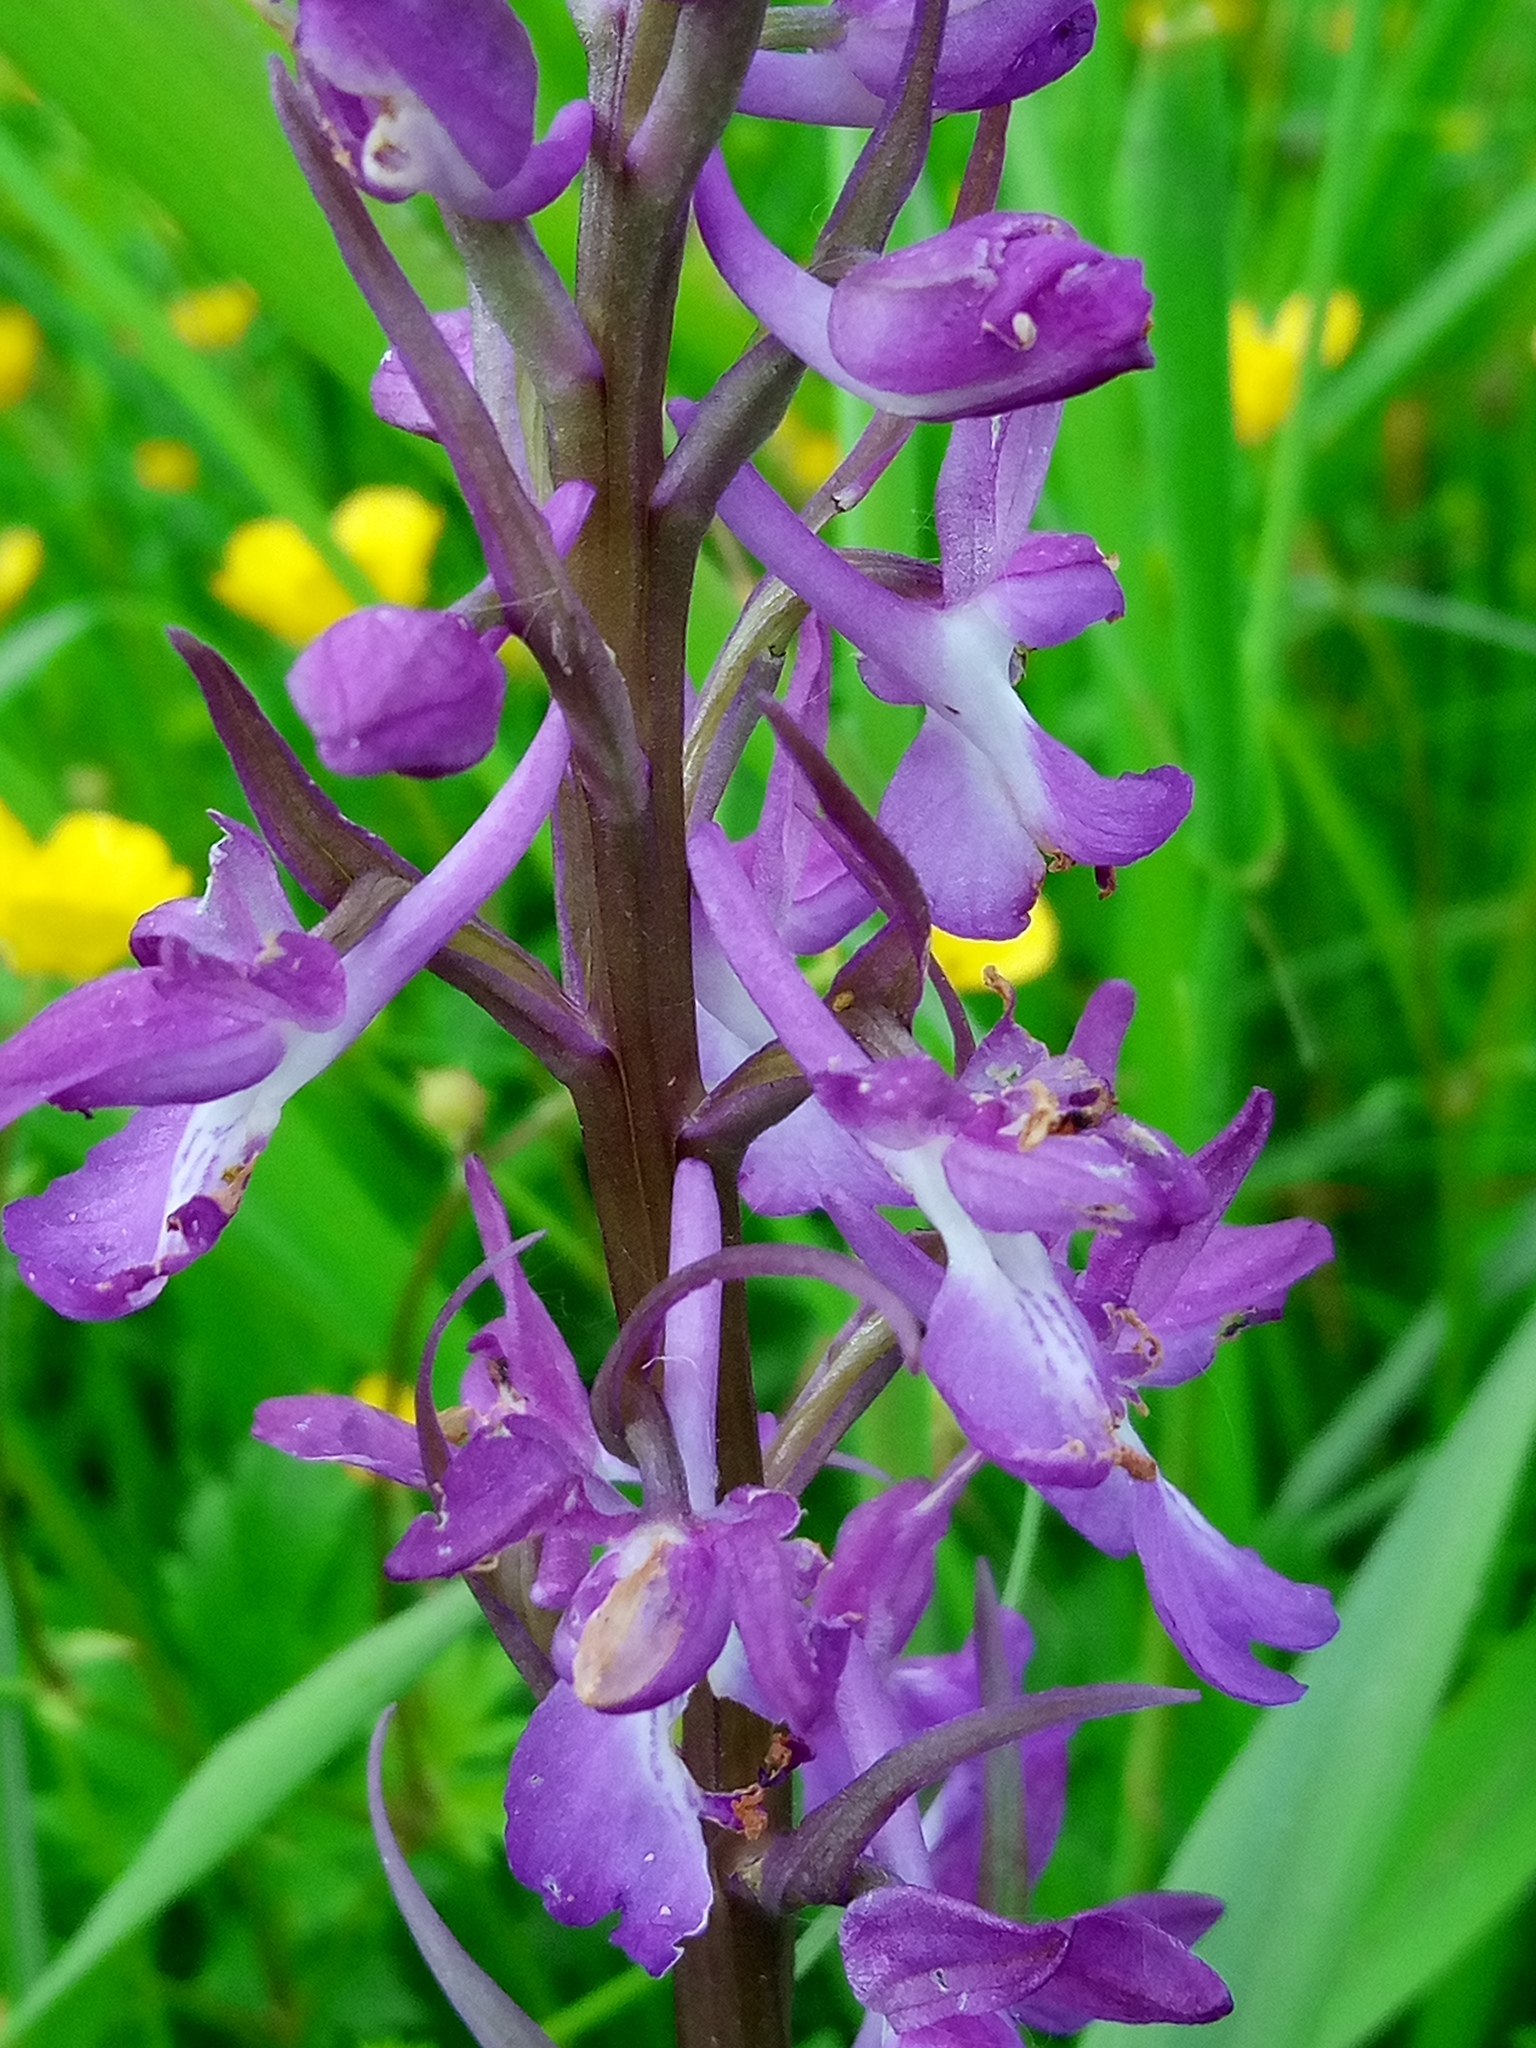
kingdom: Plantae
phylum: Tracheophyta
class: Liliopsida
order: Asparagales
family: Orchidaceae
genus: Anacamptis
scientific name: Anacamptis palustris
